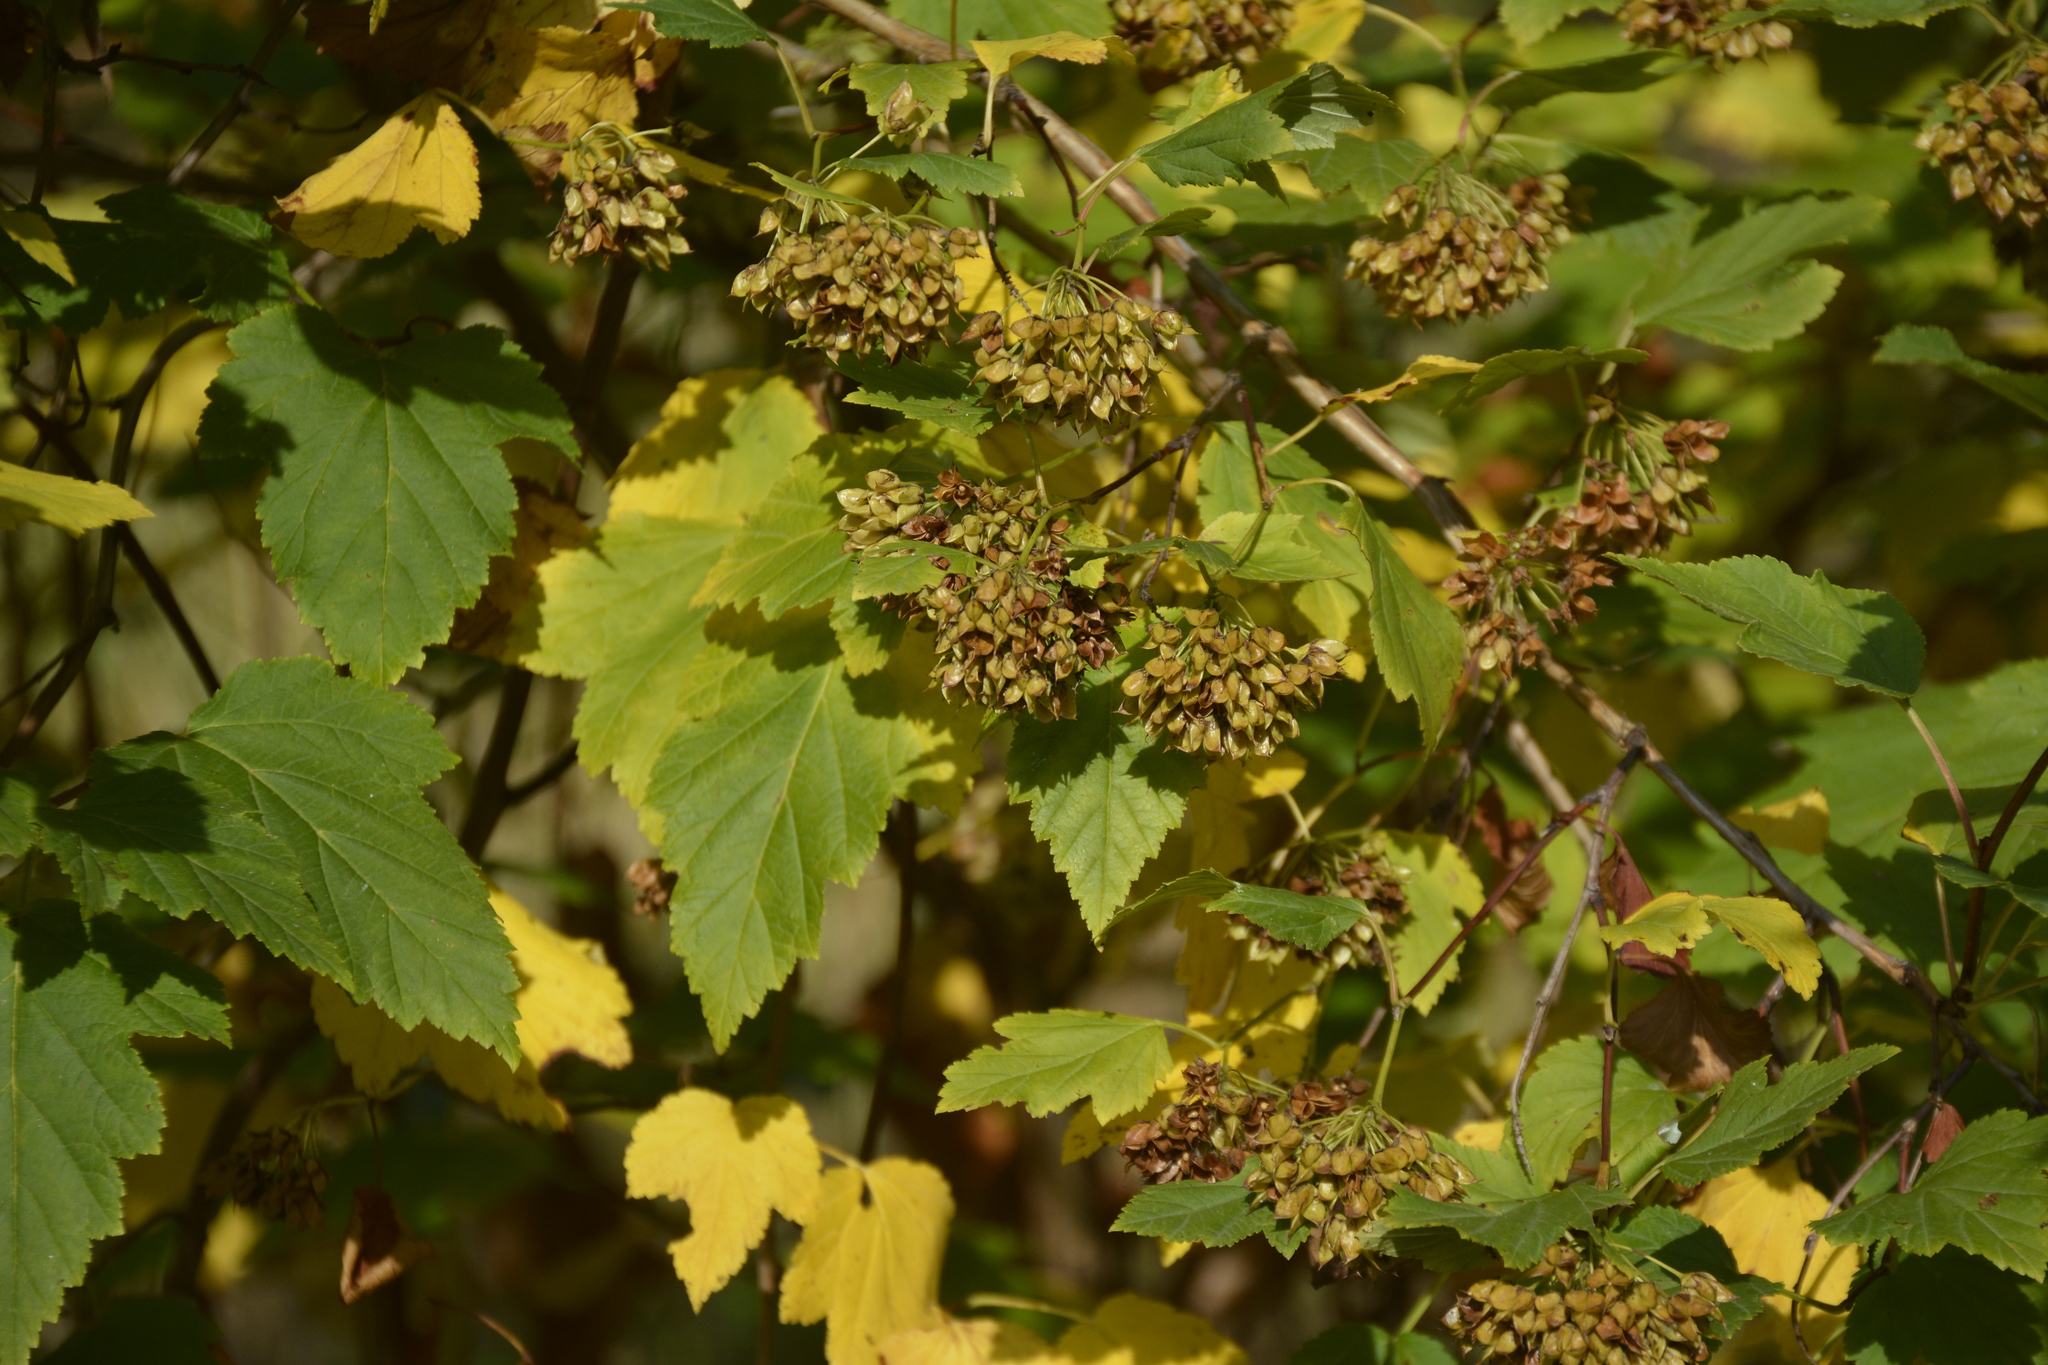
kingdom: Plantae
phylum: Tracheophyta
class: Magnoliopsida
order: Rosales
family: Rosaceae
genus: Physocarpus
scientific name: Physocarpus opulifolius
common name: Ninebark
